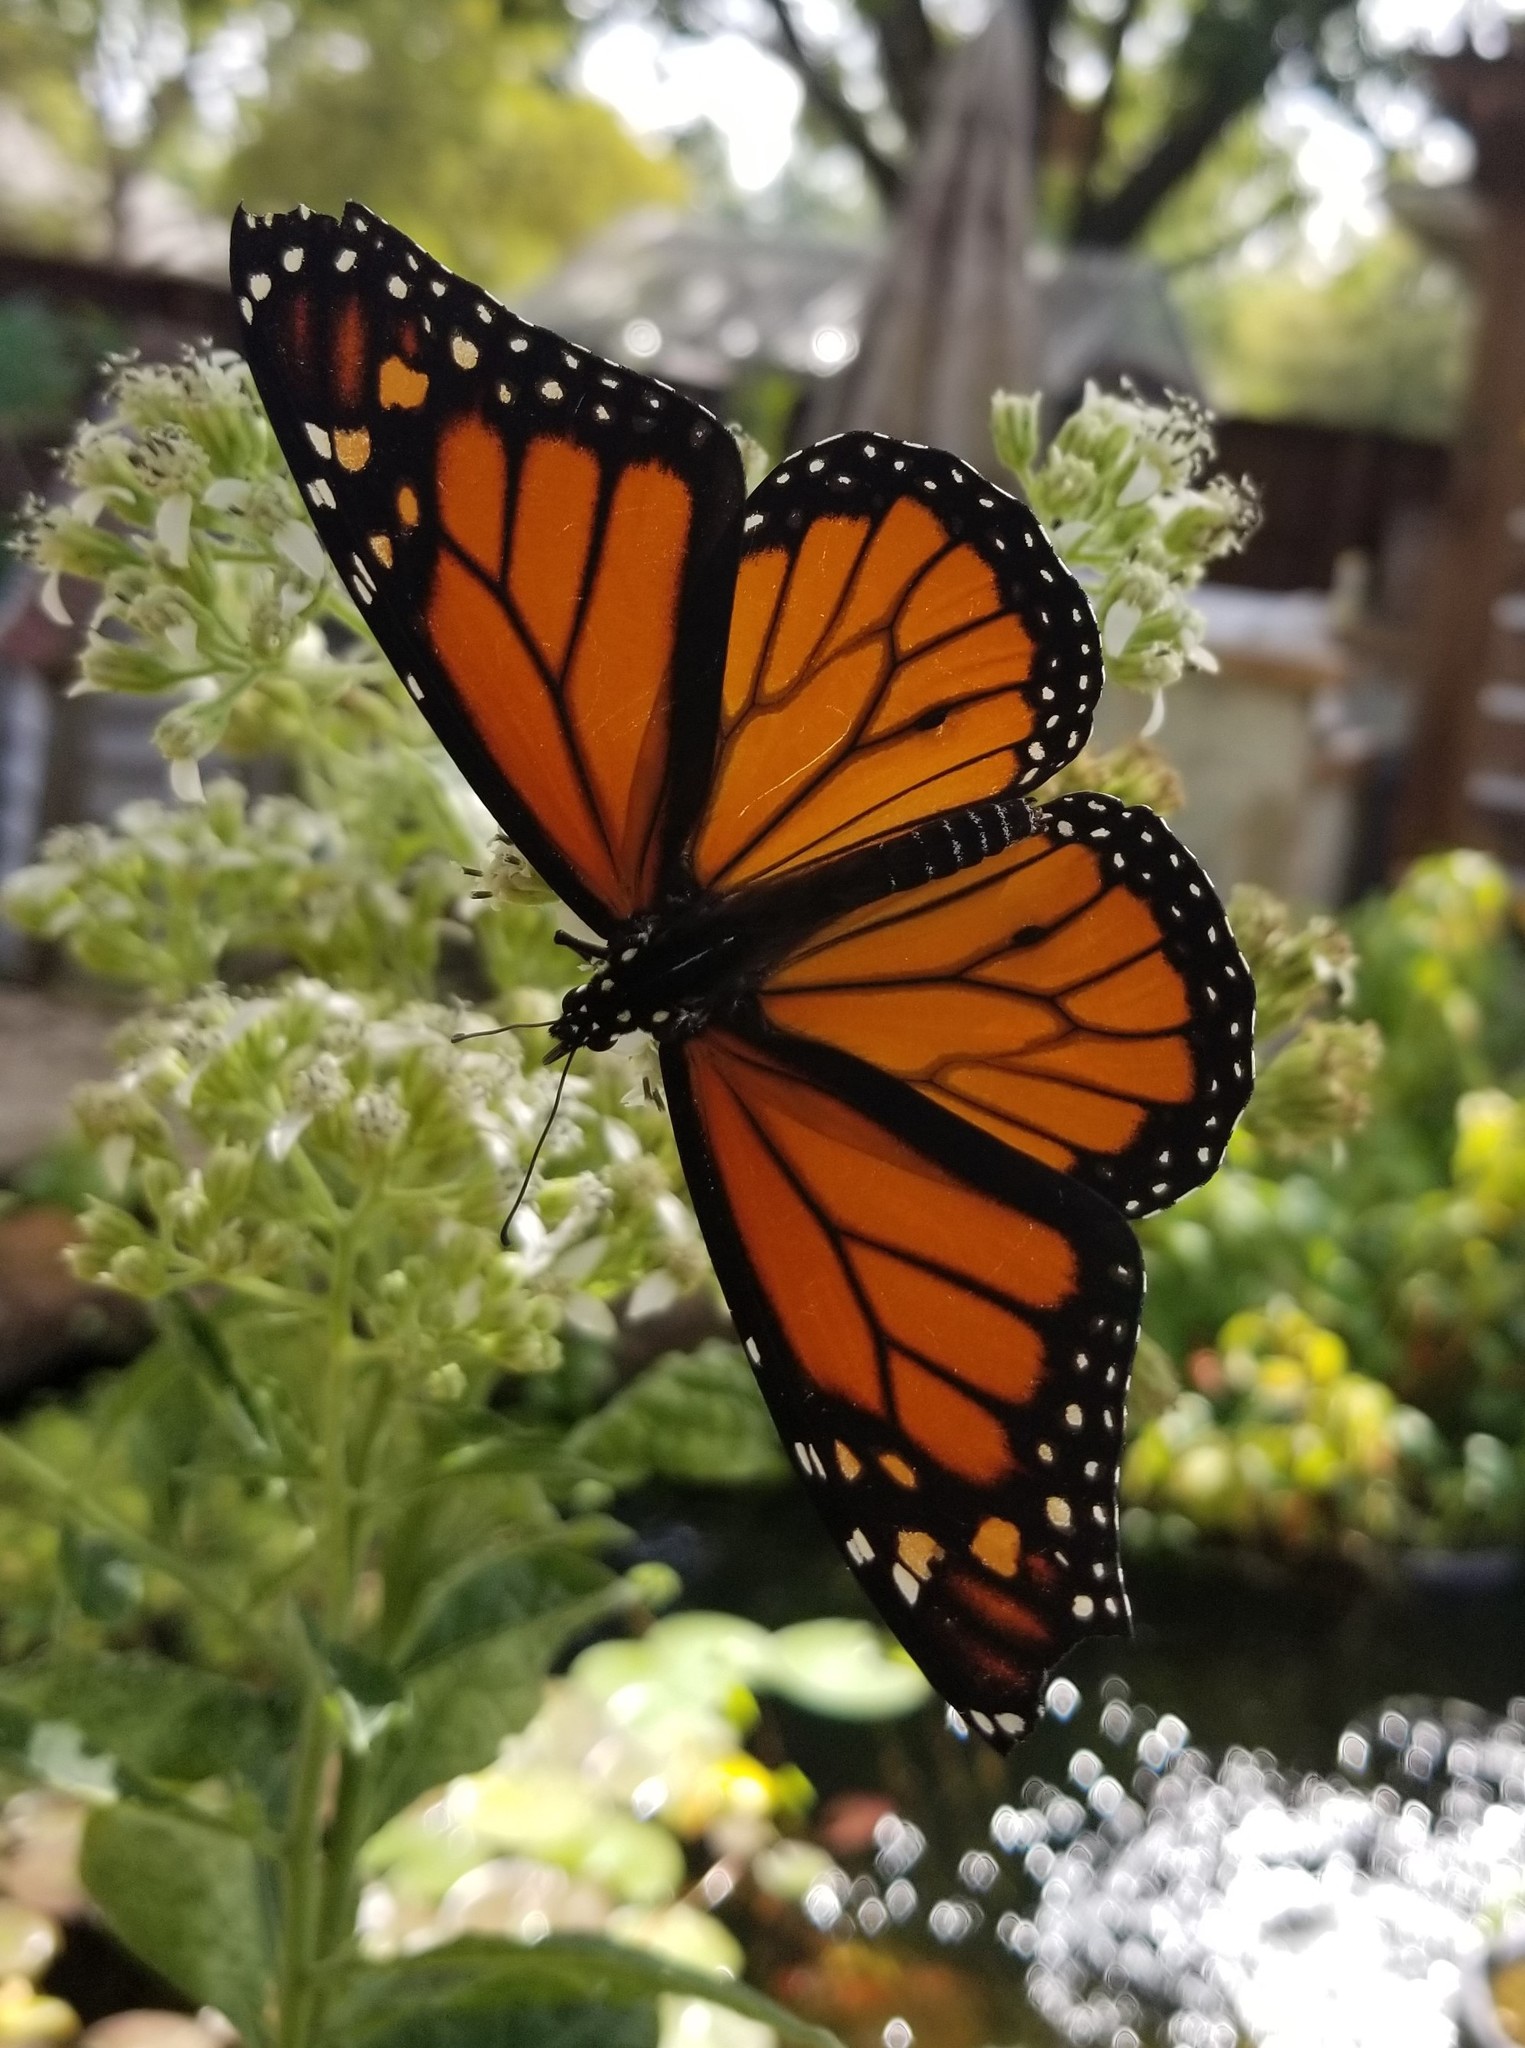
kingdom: Animalia
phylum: Arthropoda
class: Insecta
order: Lepidoptera
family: Nymphalidae
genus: Danaus
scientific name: Danaus plexippus
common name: Monarch
